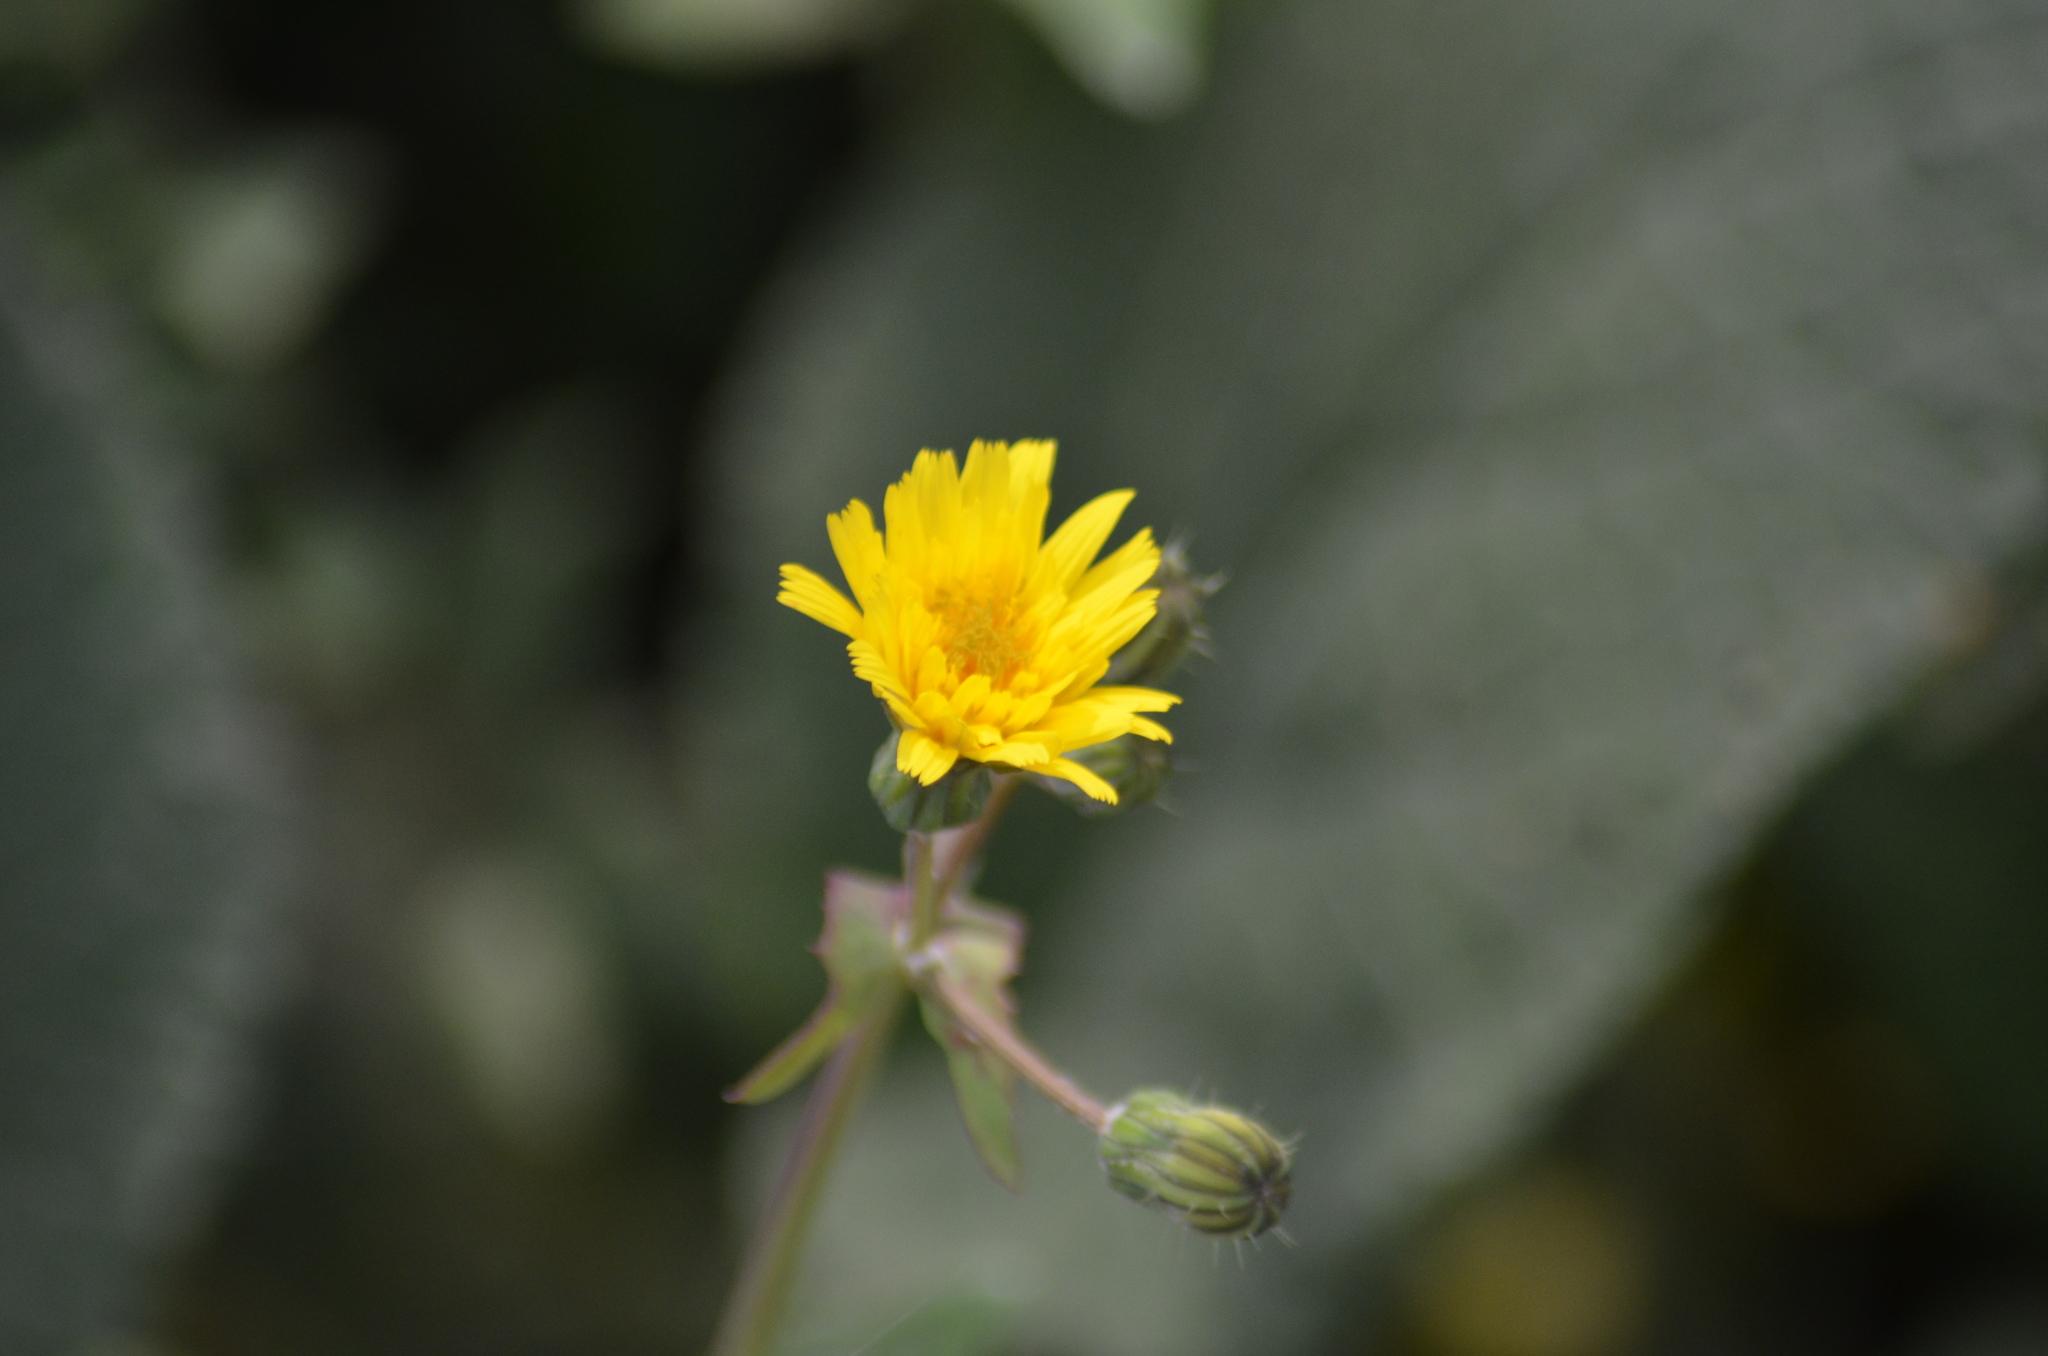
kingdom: Plantae
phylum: Tracheophyta
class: Magnoliopsida
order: Asterales
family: Asteraceae
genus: Sonchus
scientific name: Sonchus oleraceus
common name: Common sowthistle
